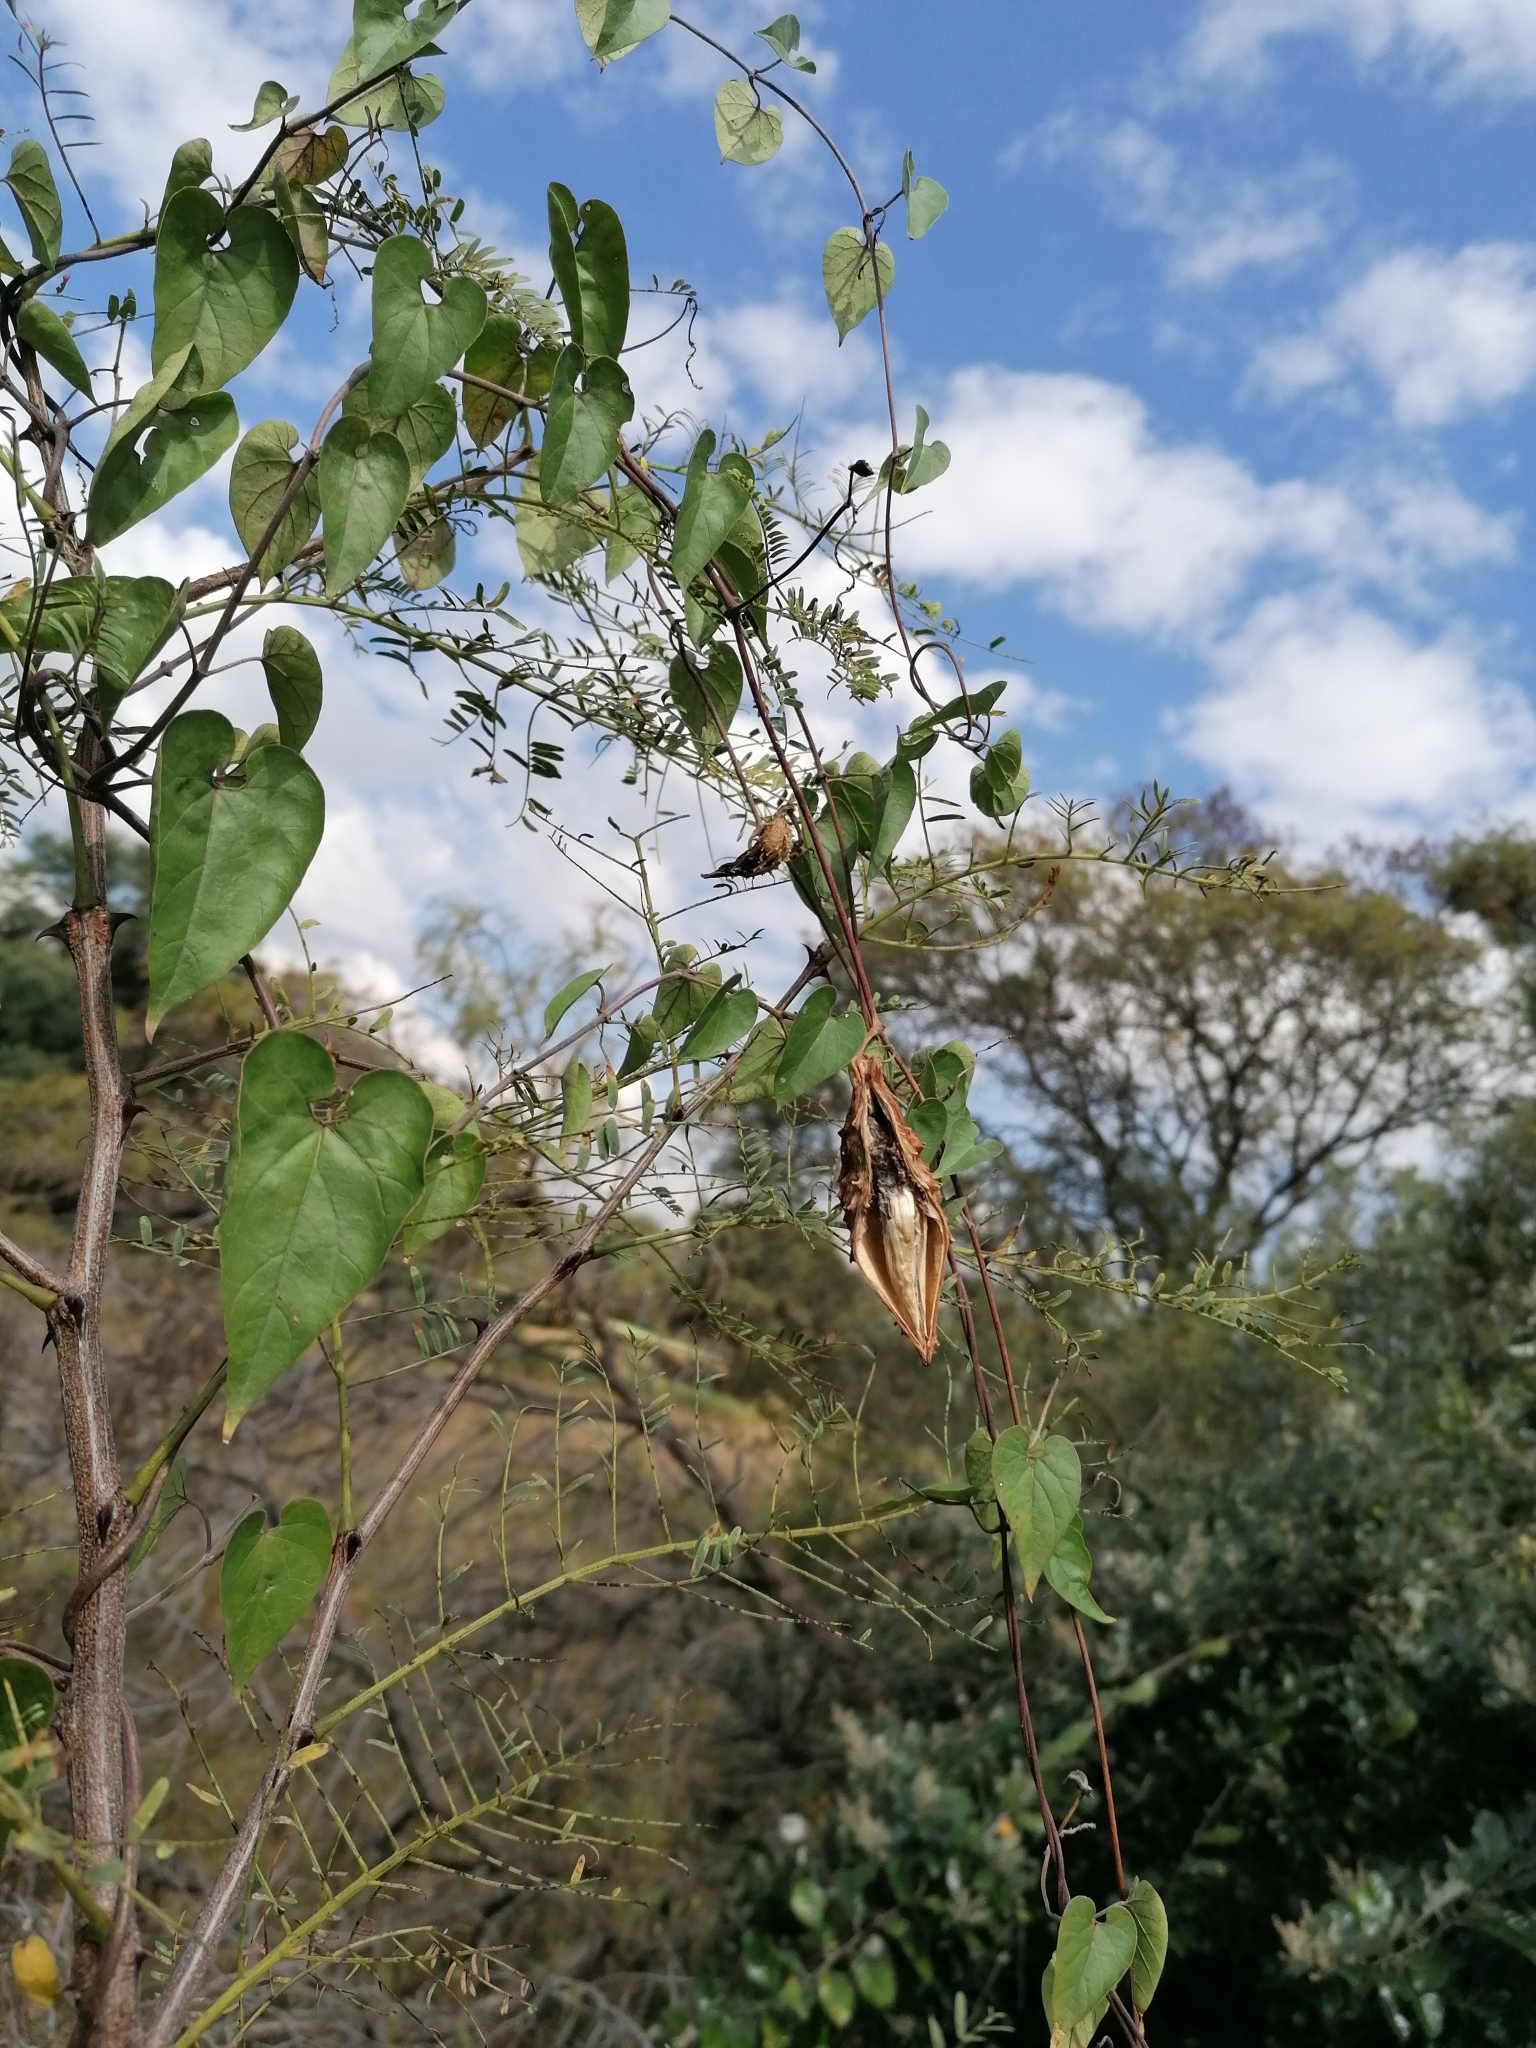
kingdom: Plantae
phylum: Tracheophyta
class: Magnoliopsida
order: Gentianales
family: Apocynaceae
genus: Cynanchum
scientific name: Cynanchum
